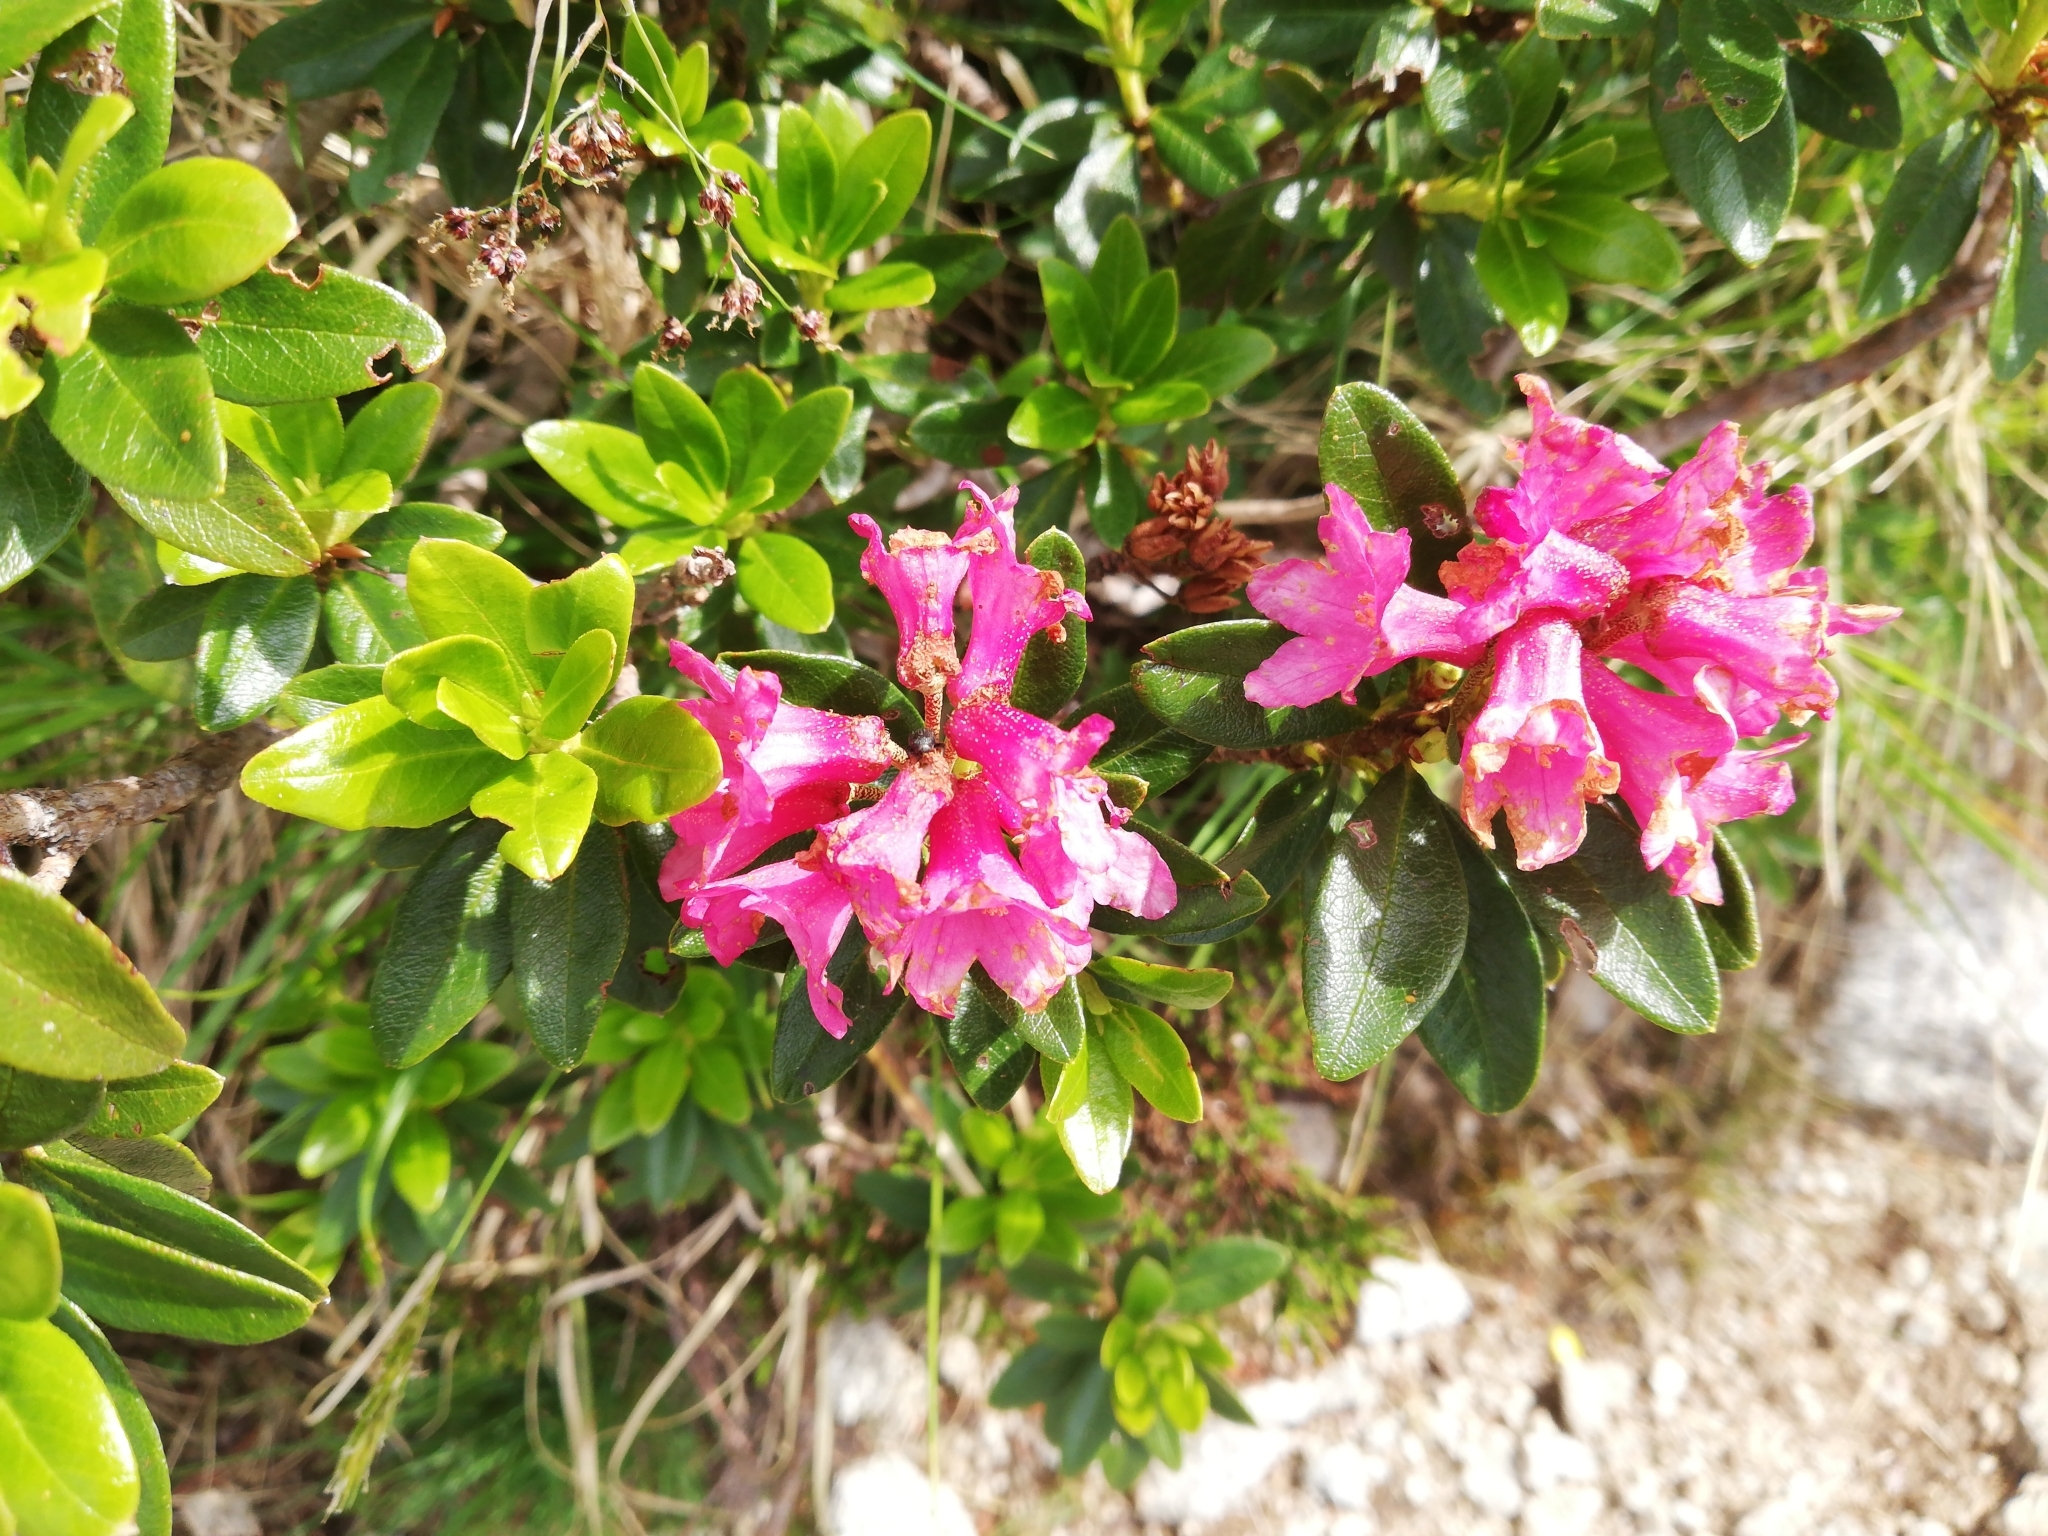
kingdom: Plantae
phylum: Tracheophyta
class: Magnoliopsida
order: Ericales
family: Ericaceae
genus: Rhododendron
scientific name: Rhododendron ferrugineum
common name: Alpenrose
